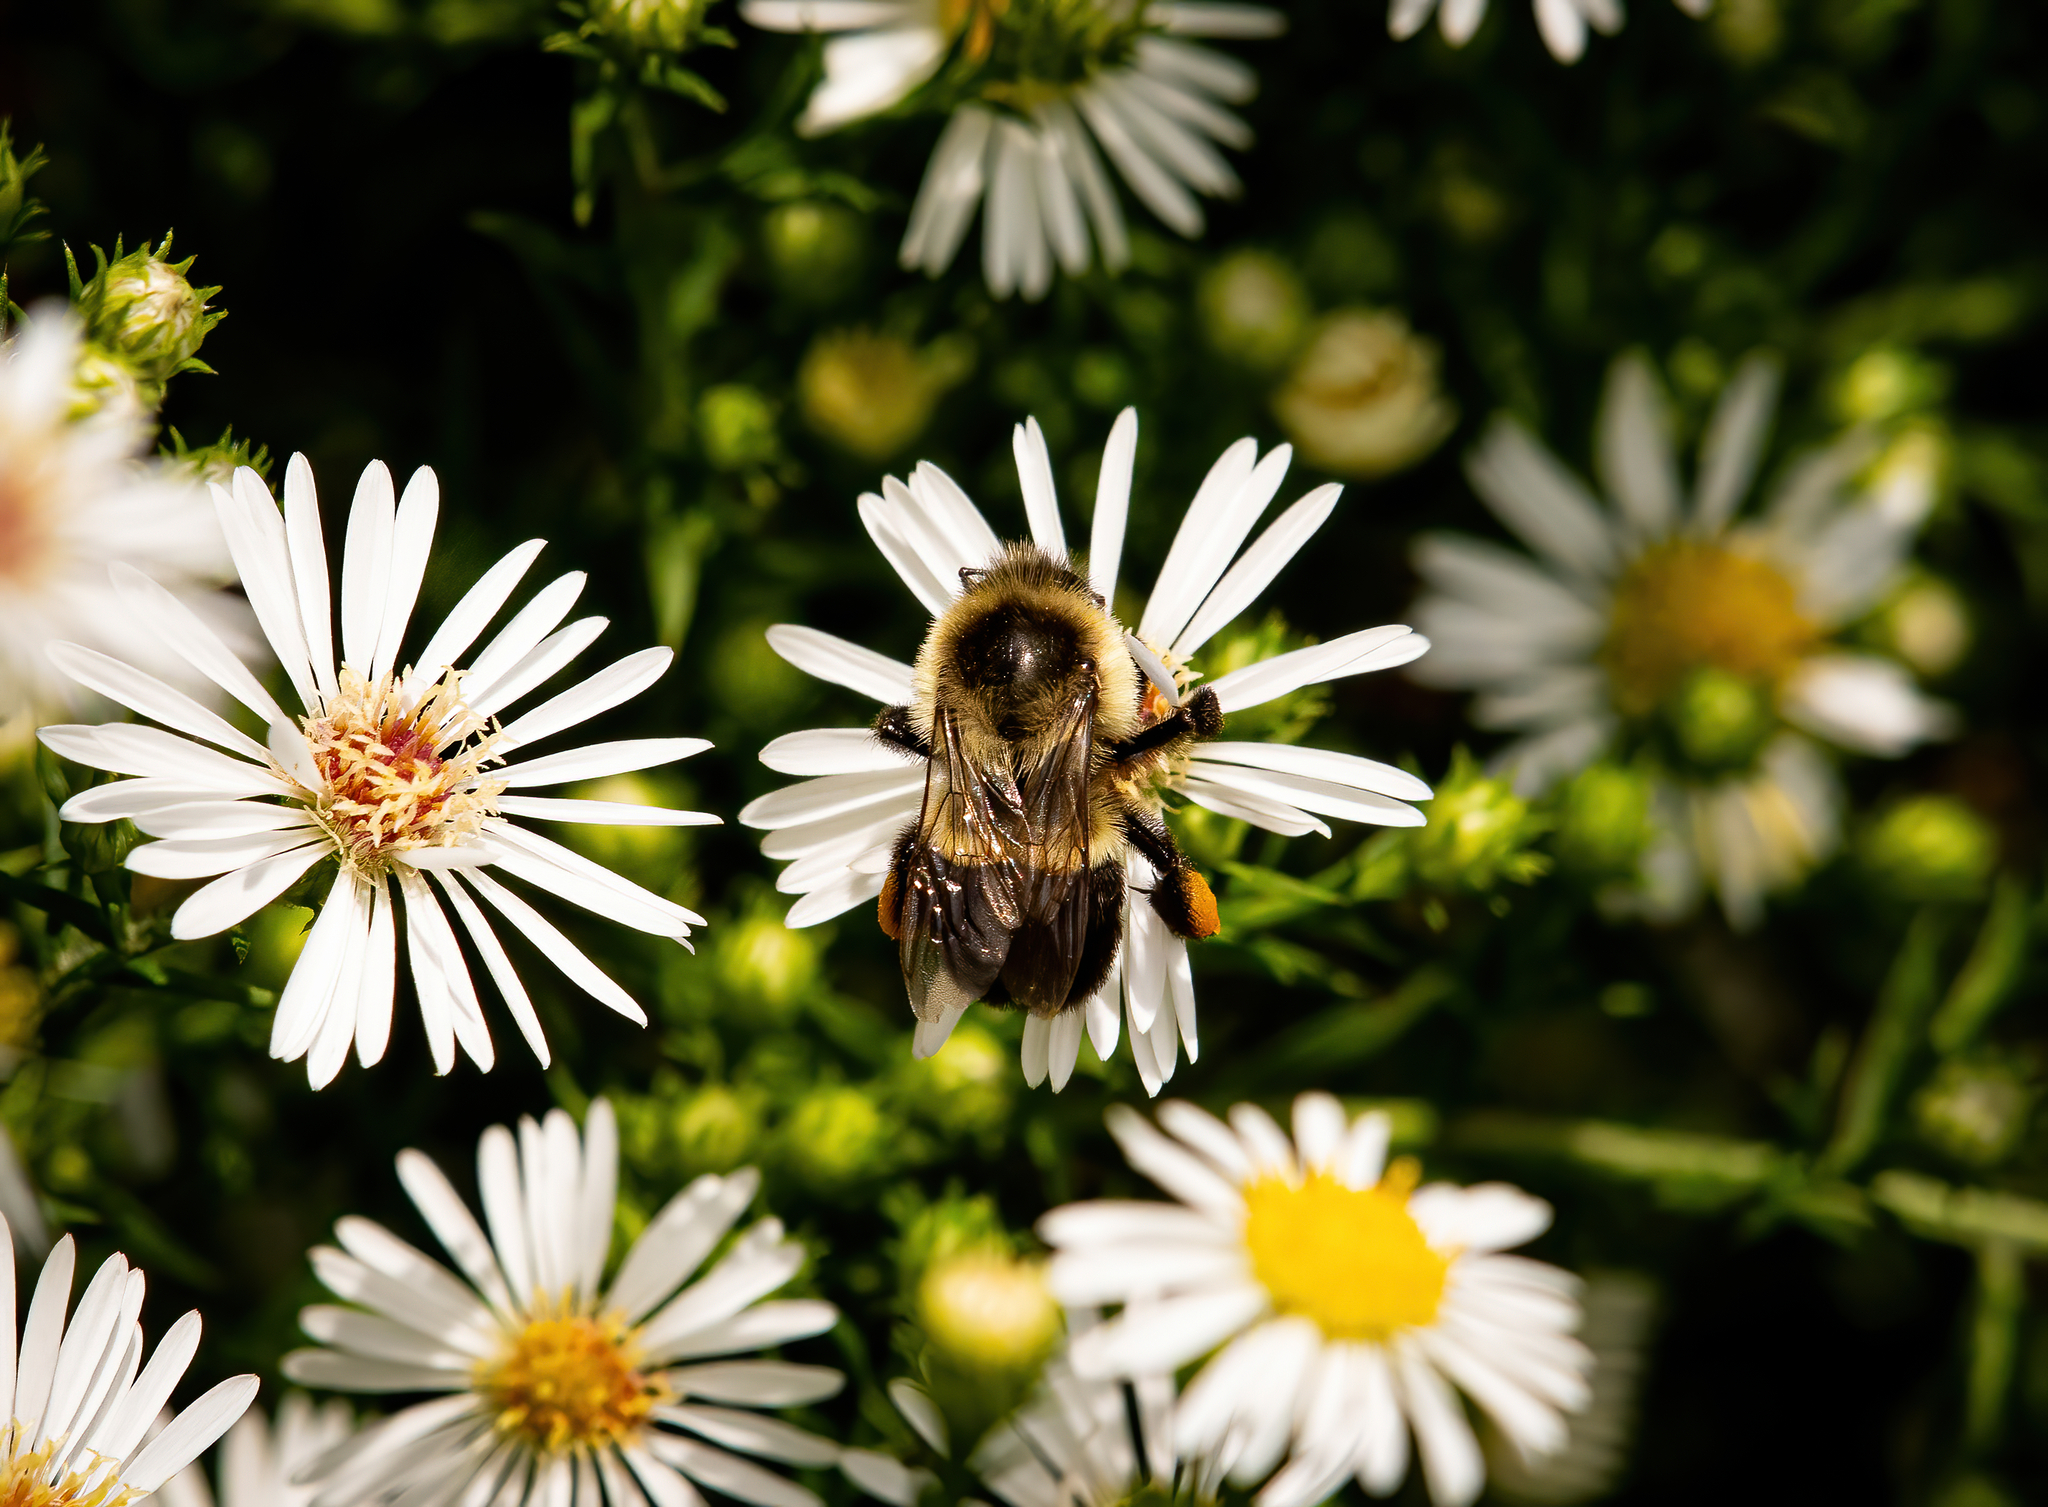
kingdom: Animalia
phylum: Arthropoda
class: Insecta
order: Hymenoptera
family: Apidae
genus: Bombus
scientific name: Bombus impatiens
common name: Common eastern bumble bee
